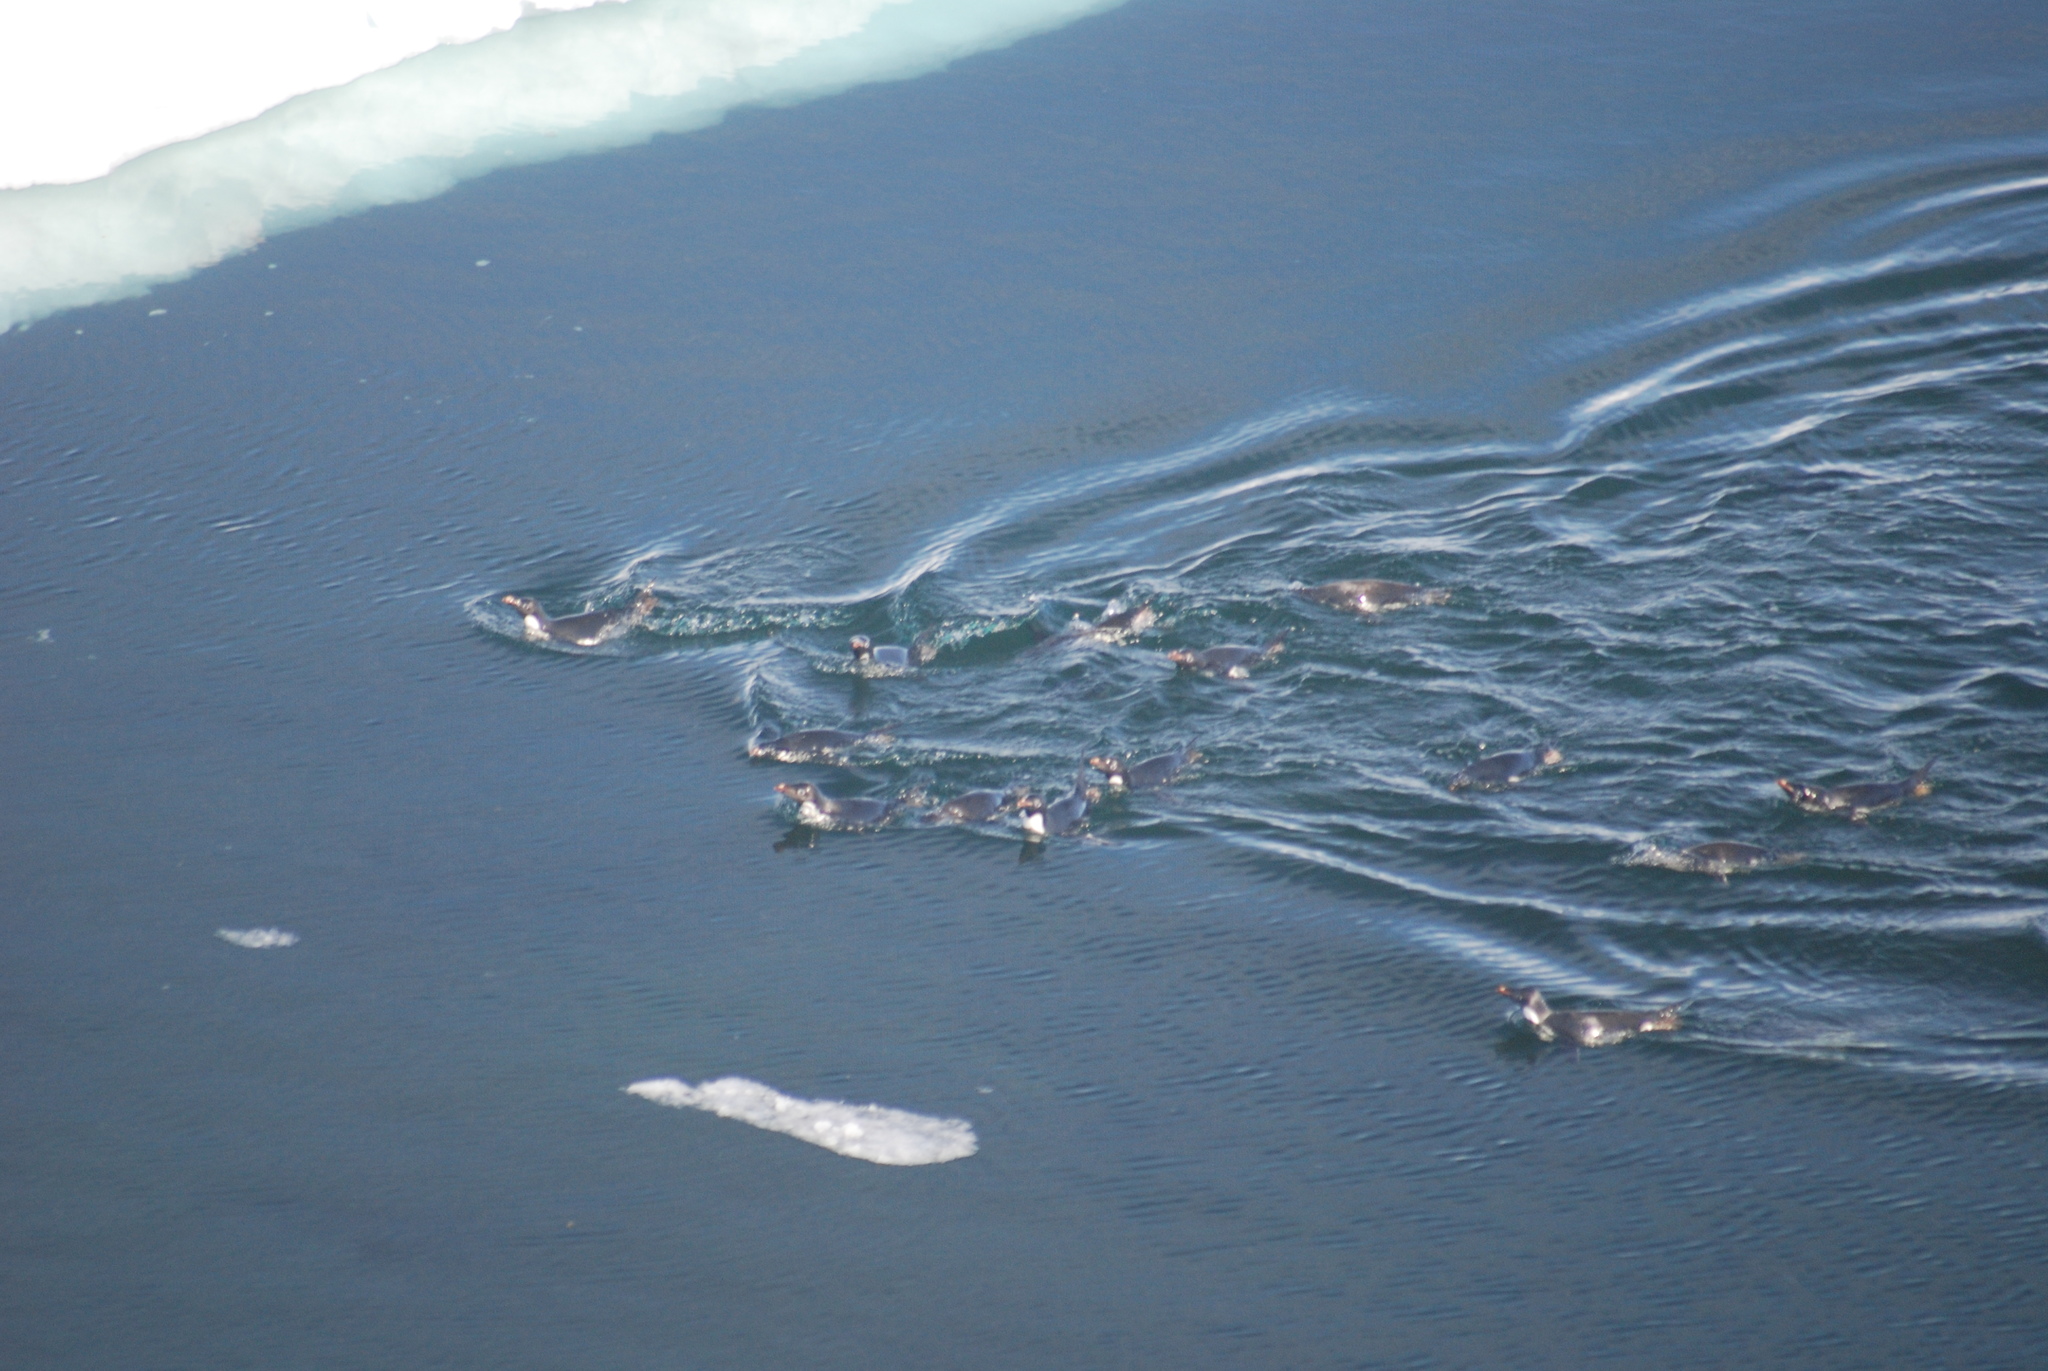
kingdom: Animalia
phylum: Chordata
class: Aves
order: Sphenisciformes
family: Spheniscidae
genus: Pygoscelis
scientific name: Pygoscelis adeliae
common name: Adelie penguin
